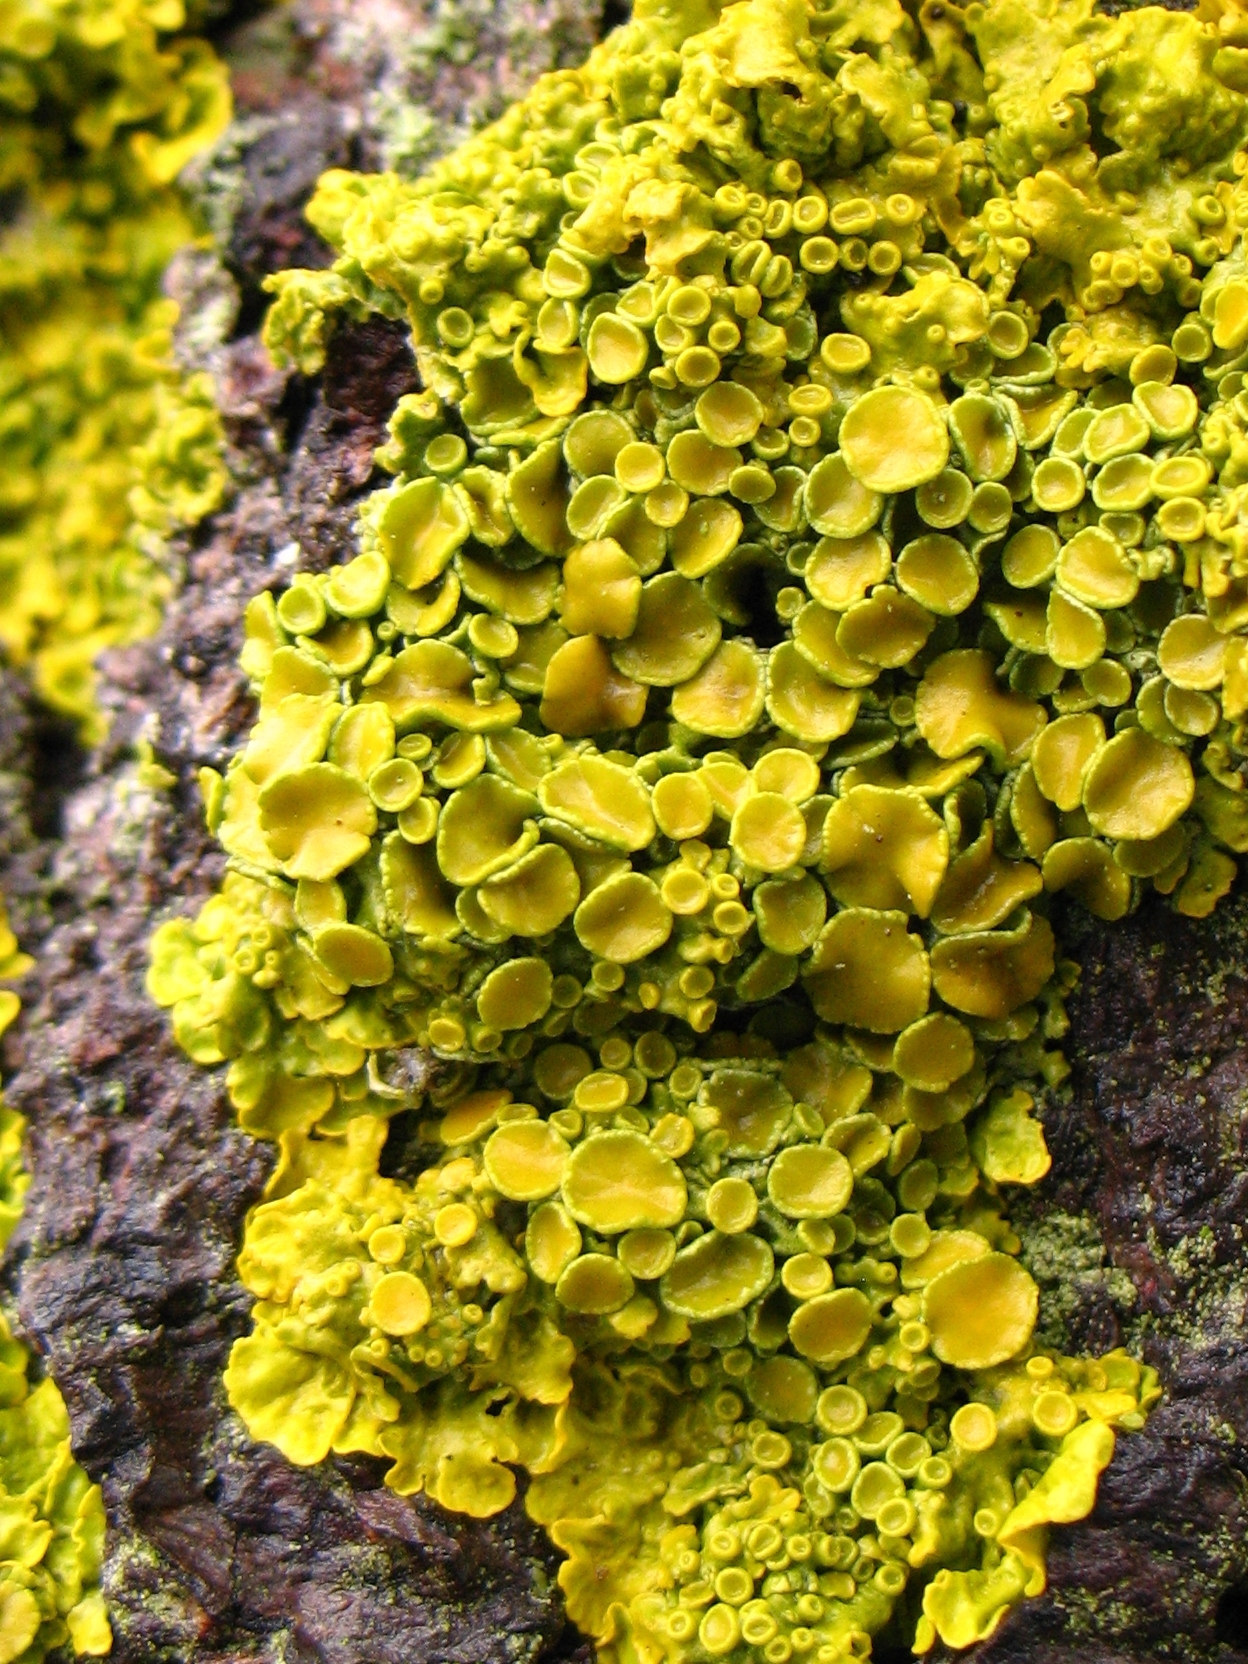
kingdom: Fungi
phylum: Ascomycota
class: Lecanoromycetes
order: Teloschistales
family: Teloschistaceae
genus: Xanthoria
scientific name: Xanthoria parietina
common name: Common orange lichen
